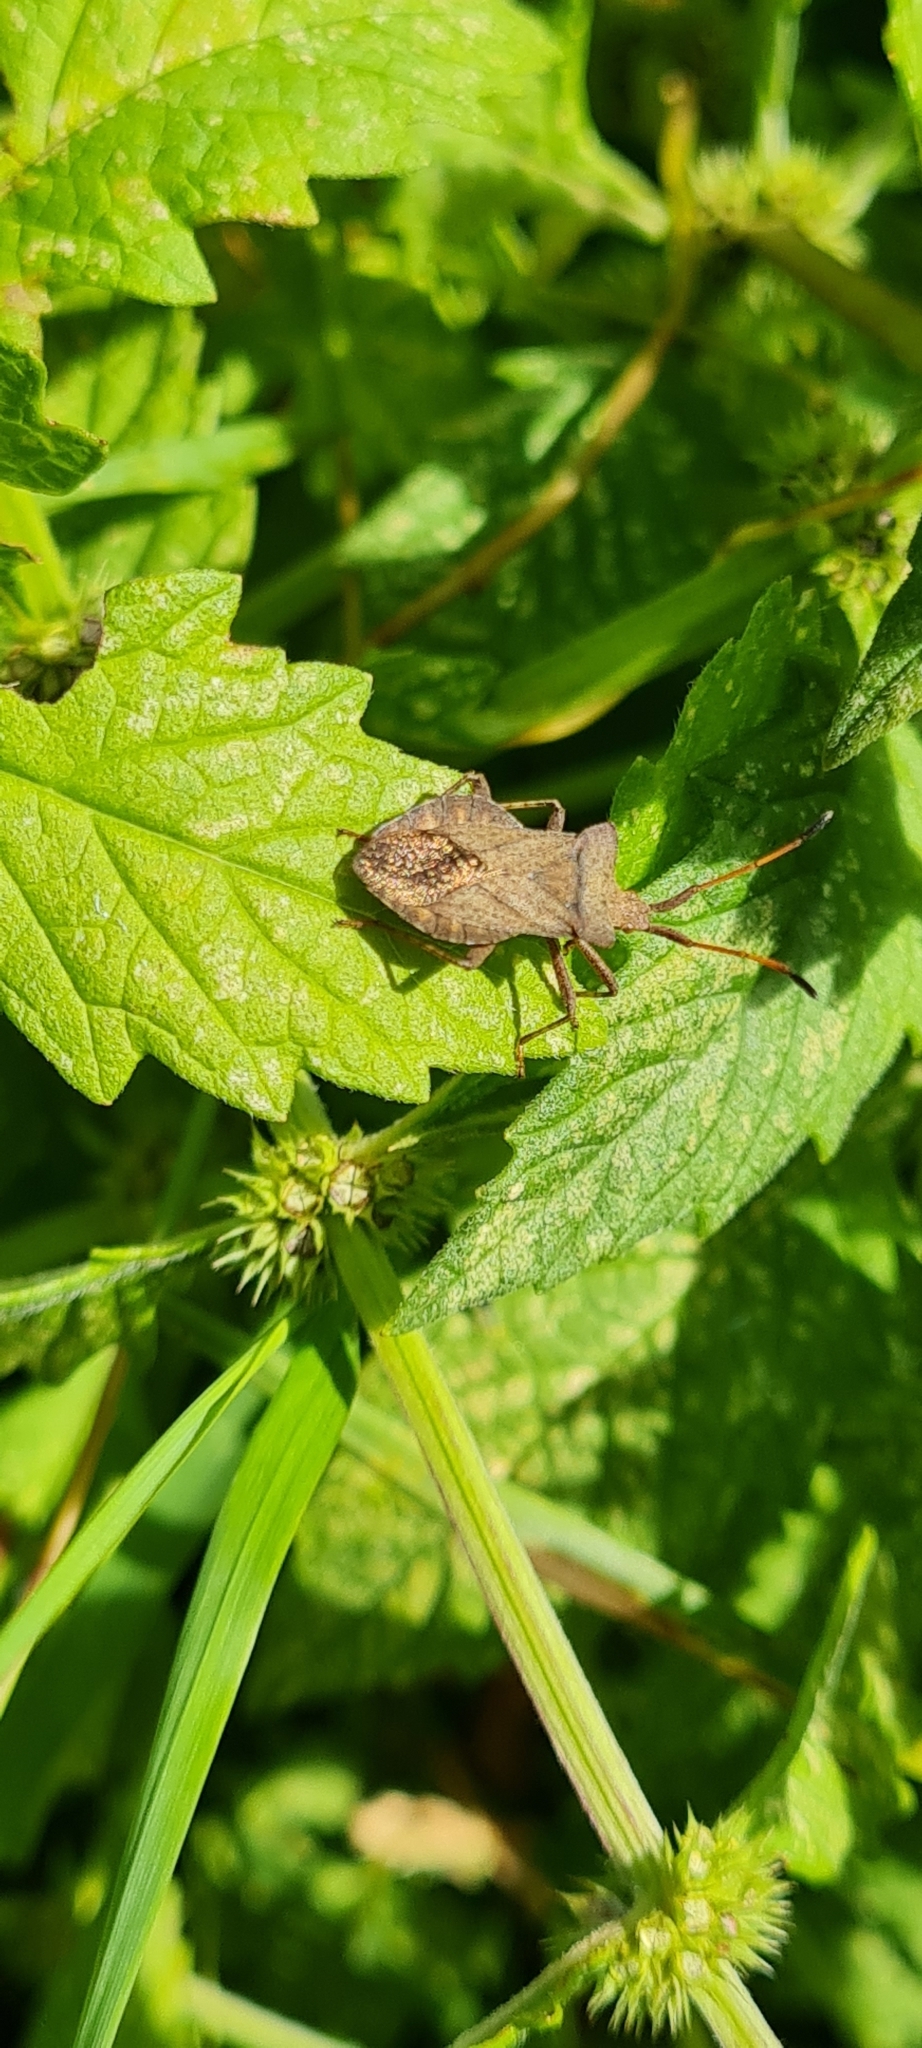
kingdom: Animalia
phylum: Arthropoda
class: Insecta
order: Hemiptera
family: Coreidae
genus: Coreus
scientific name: Coreus marginatus
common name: Dock bug
